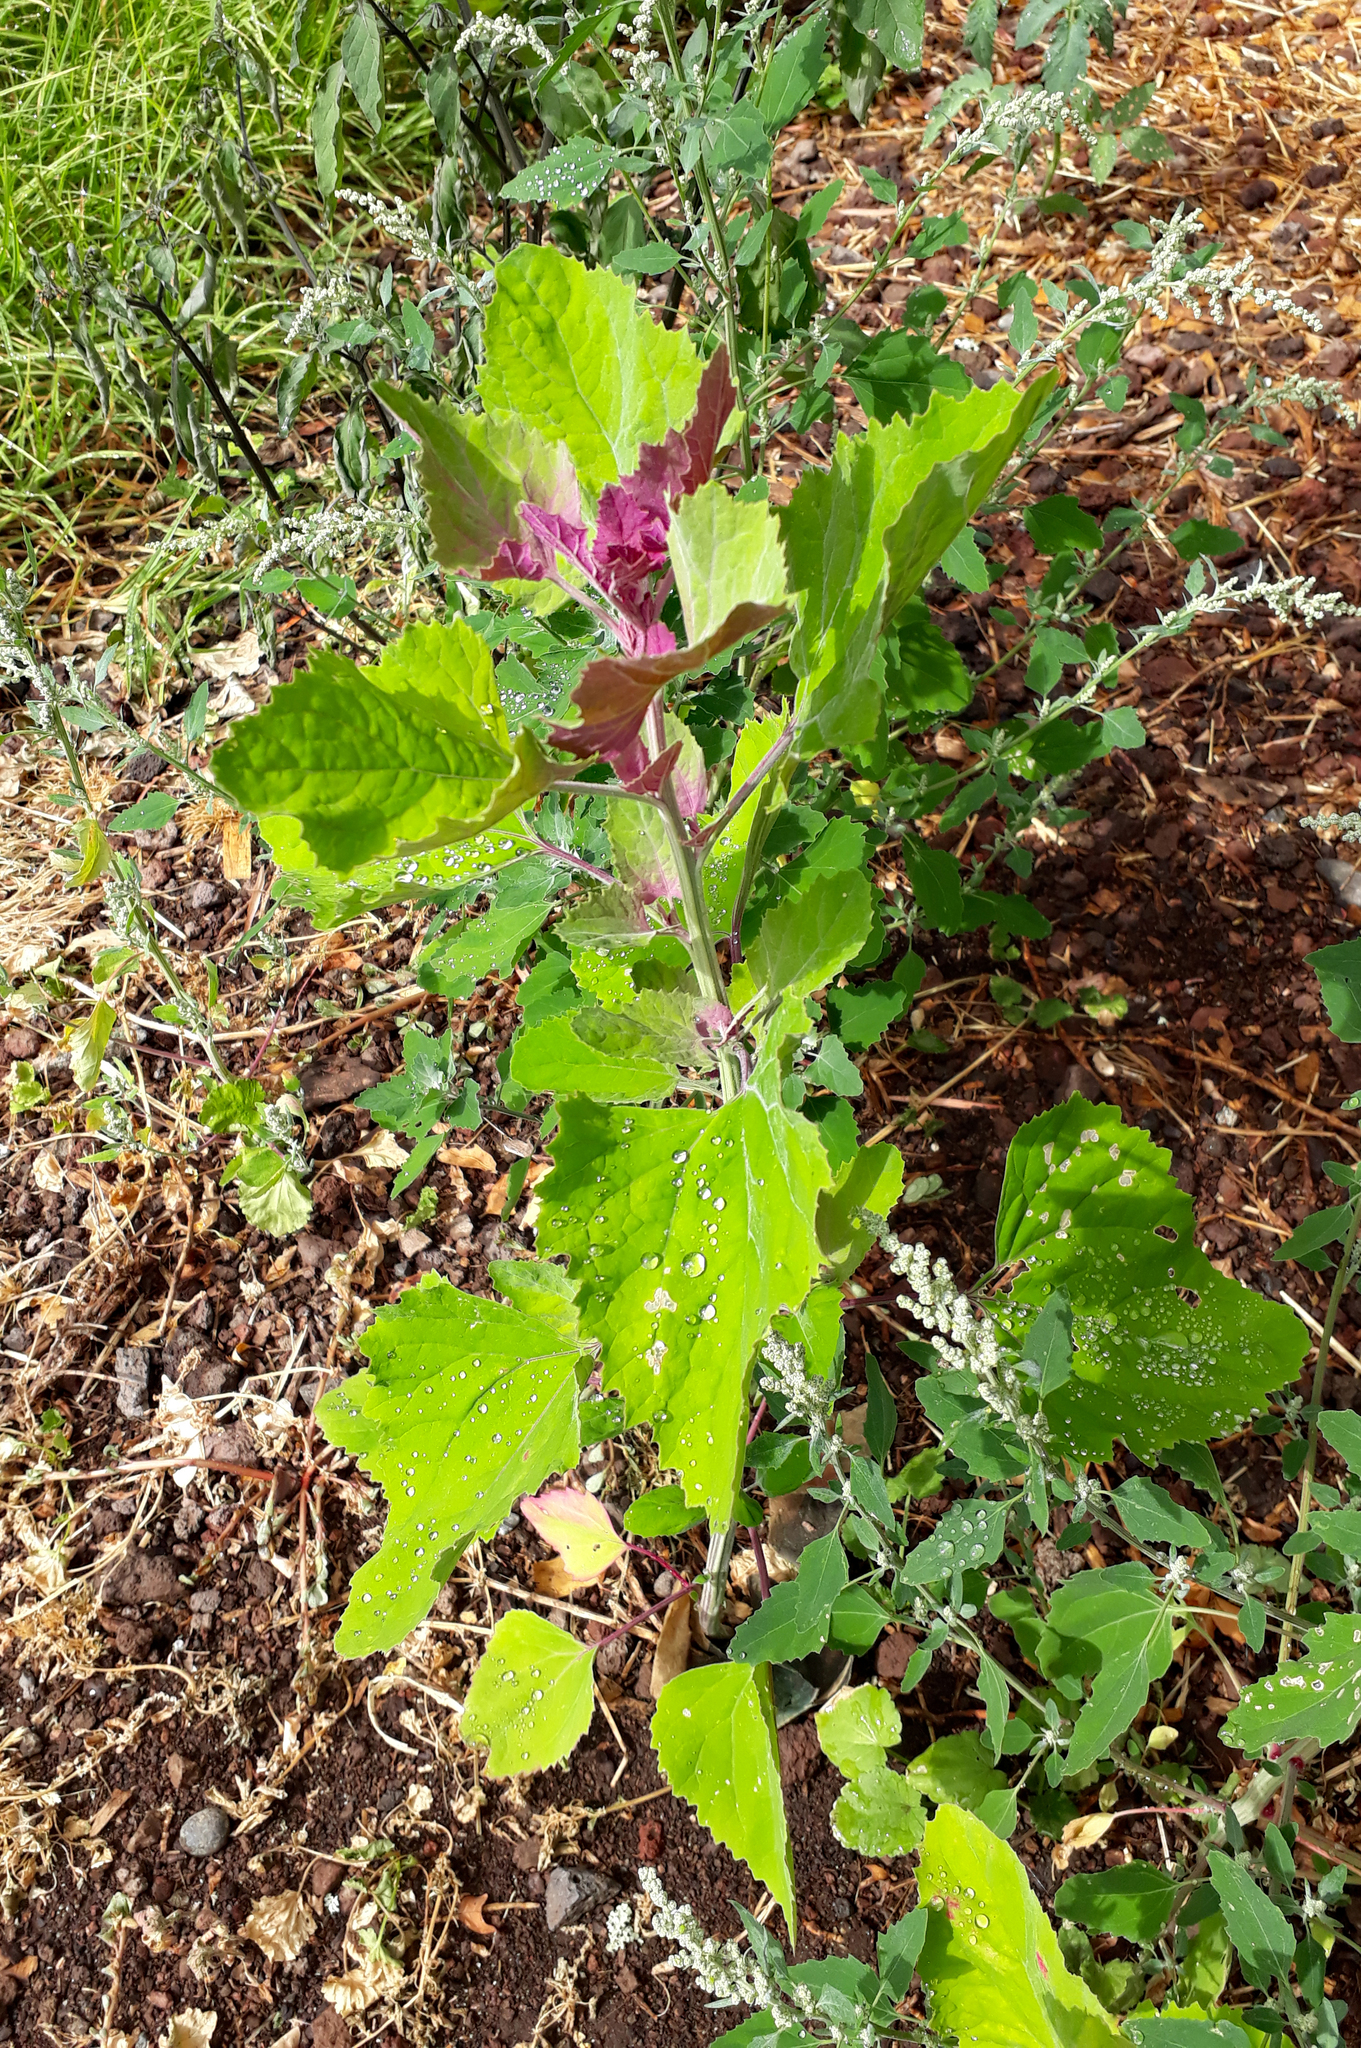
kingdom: Plantae
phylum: Tracheophyta
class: Magnoliopsida
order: Caryophyllales
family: Amaranthaceae
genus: Chenopodium
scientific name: Chenopodium giganteum
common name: Magentaspreen
